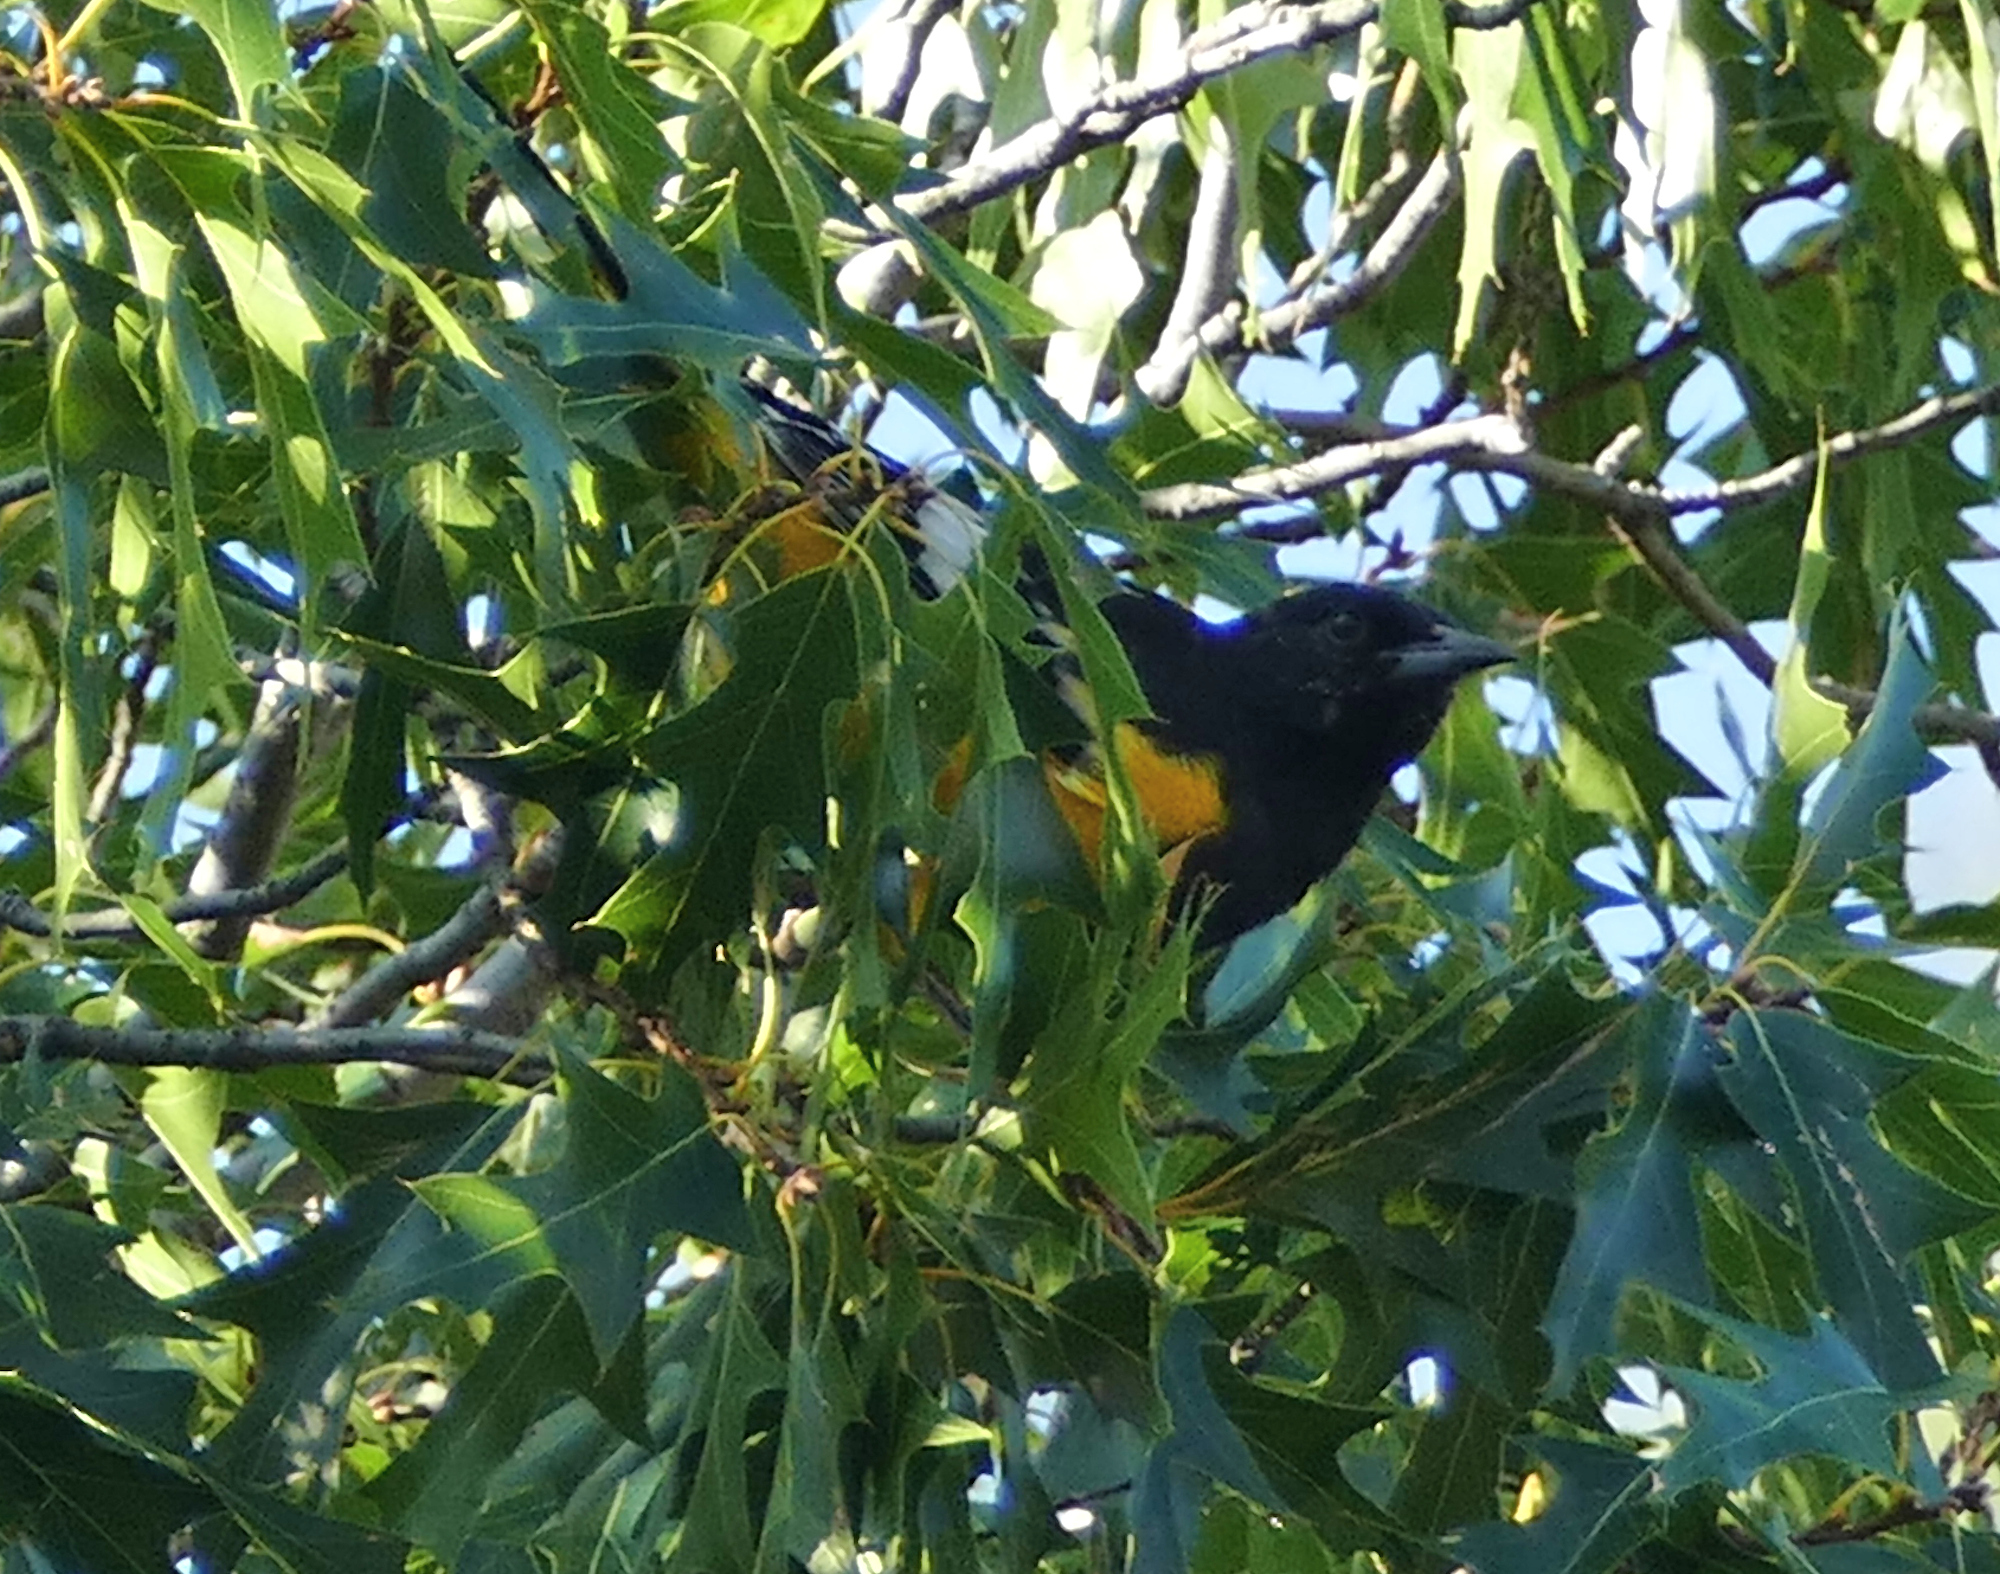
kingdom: Animalia
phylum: Chordata
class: Aves
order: Passeriformes
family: Icteridae
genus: Icterus
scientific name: Icterus parisorum
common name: Scott's oriole
